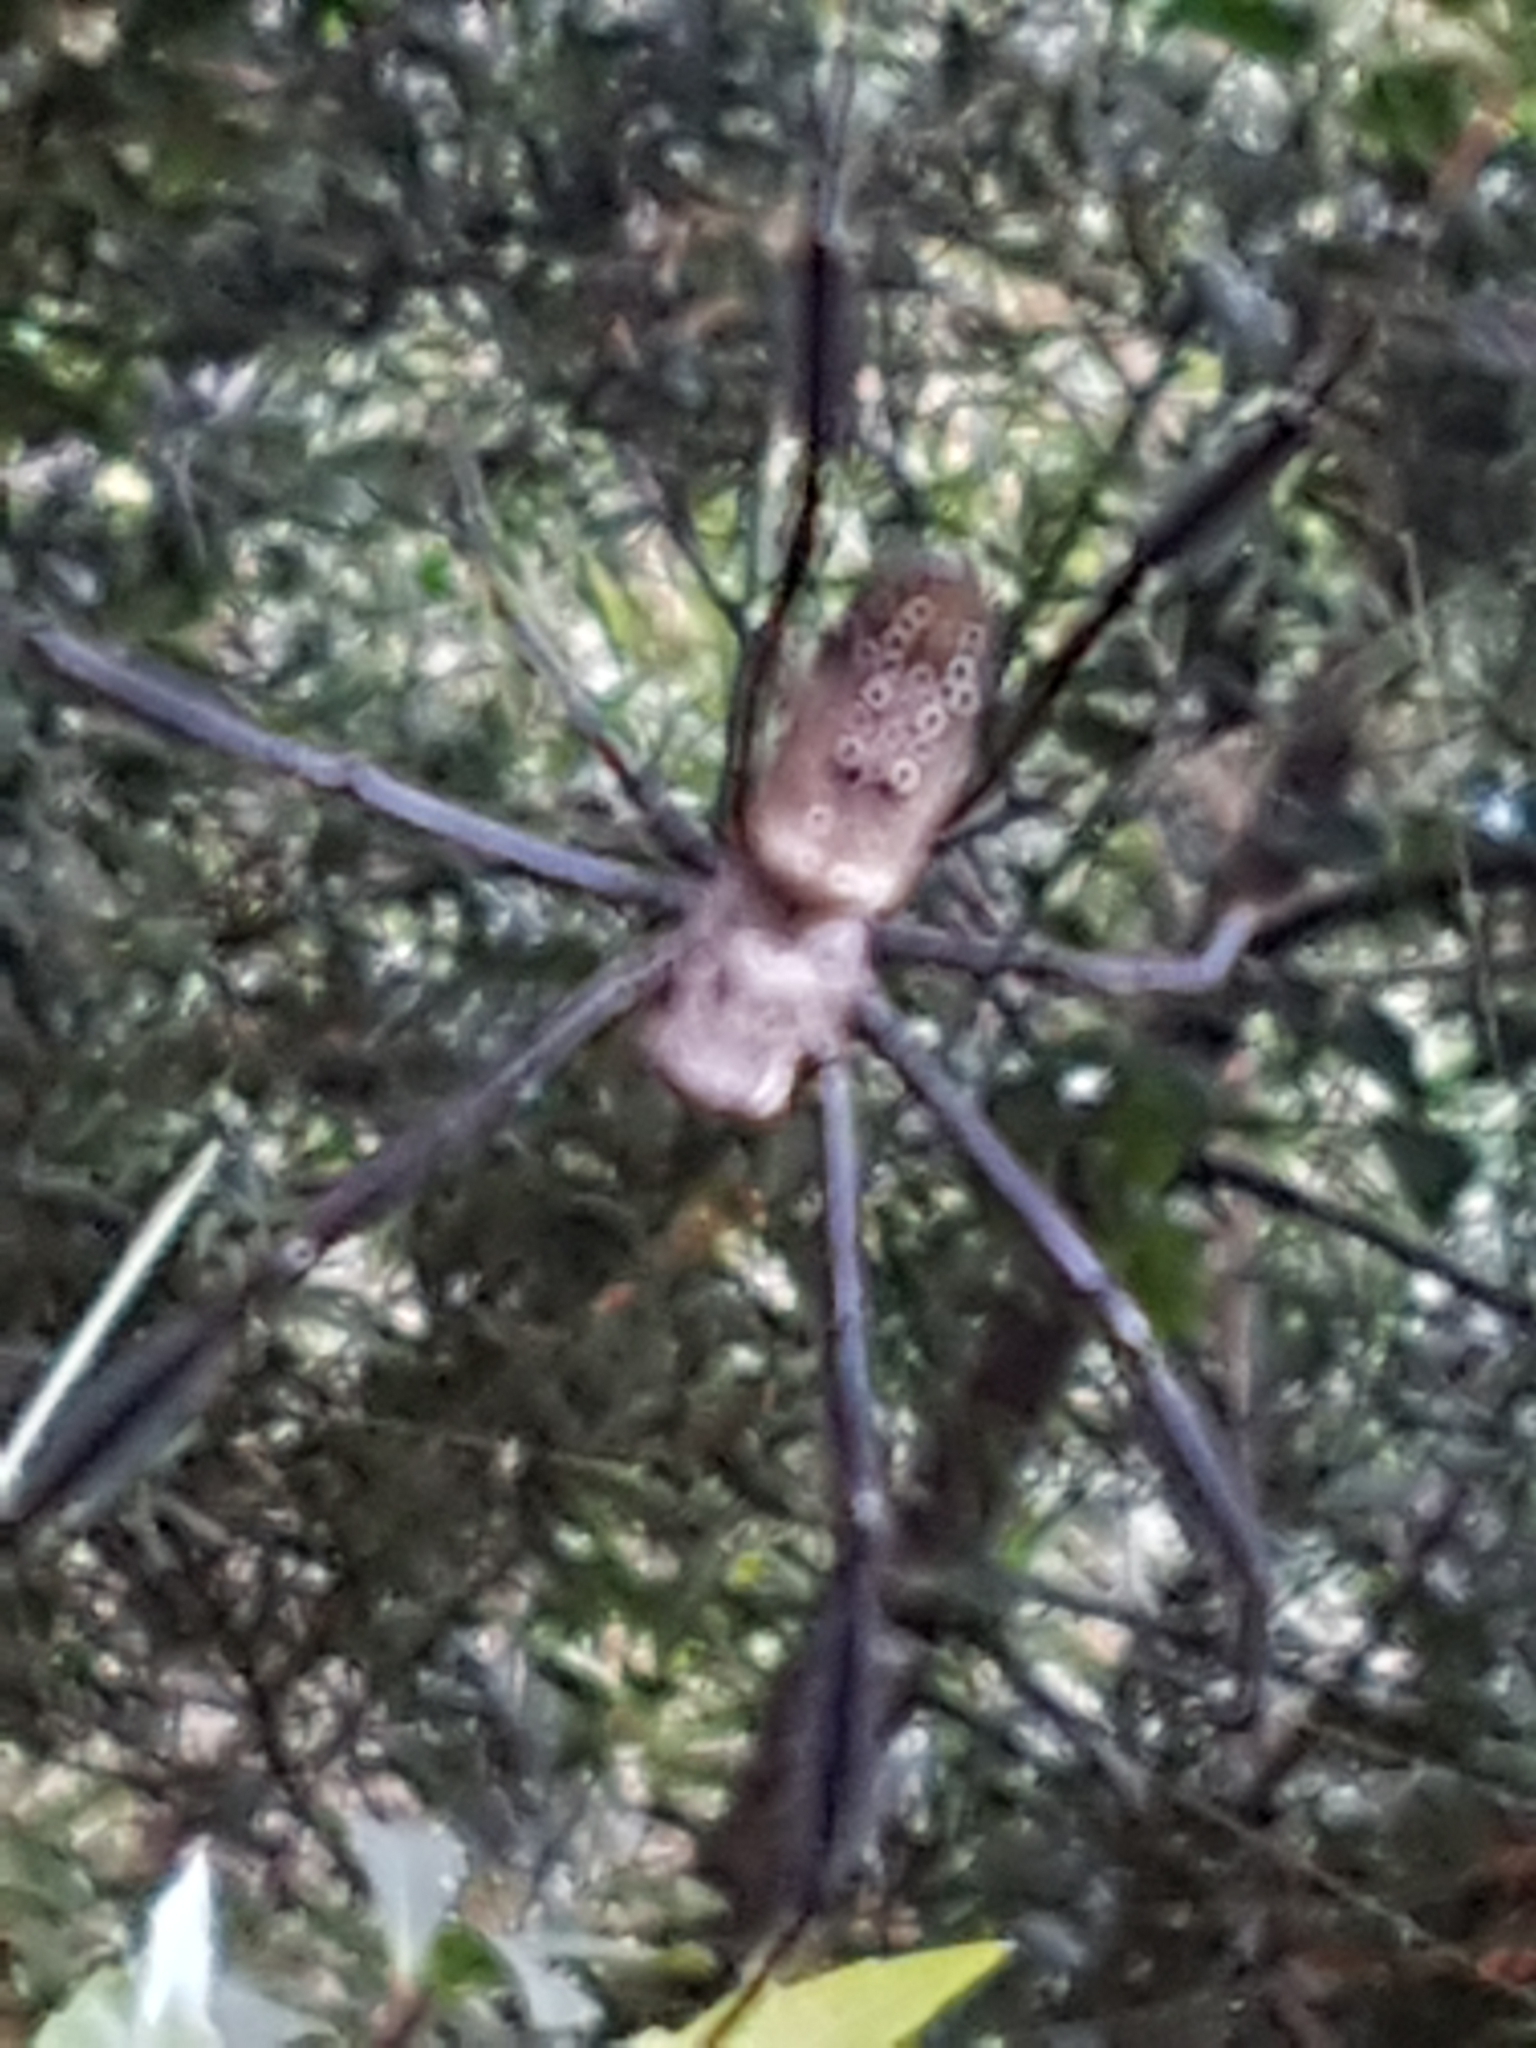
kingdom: Animalia
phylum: Arthropoda
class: Arachnida
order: Araneae
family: Araneidae
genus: Trichonephila
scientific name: Trichonephila fenestrata
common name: Hairy golden orb weaver
